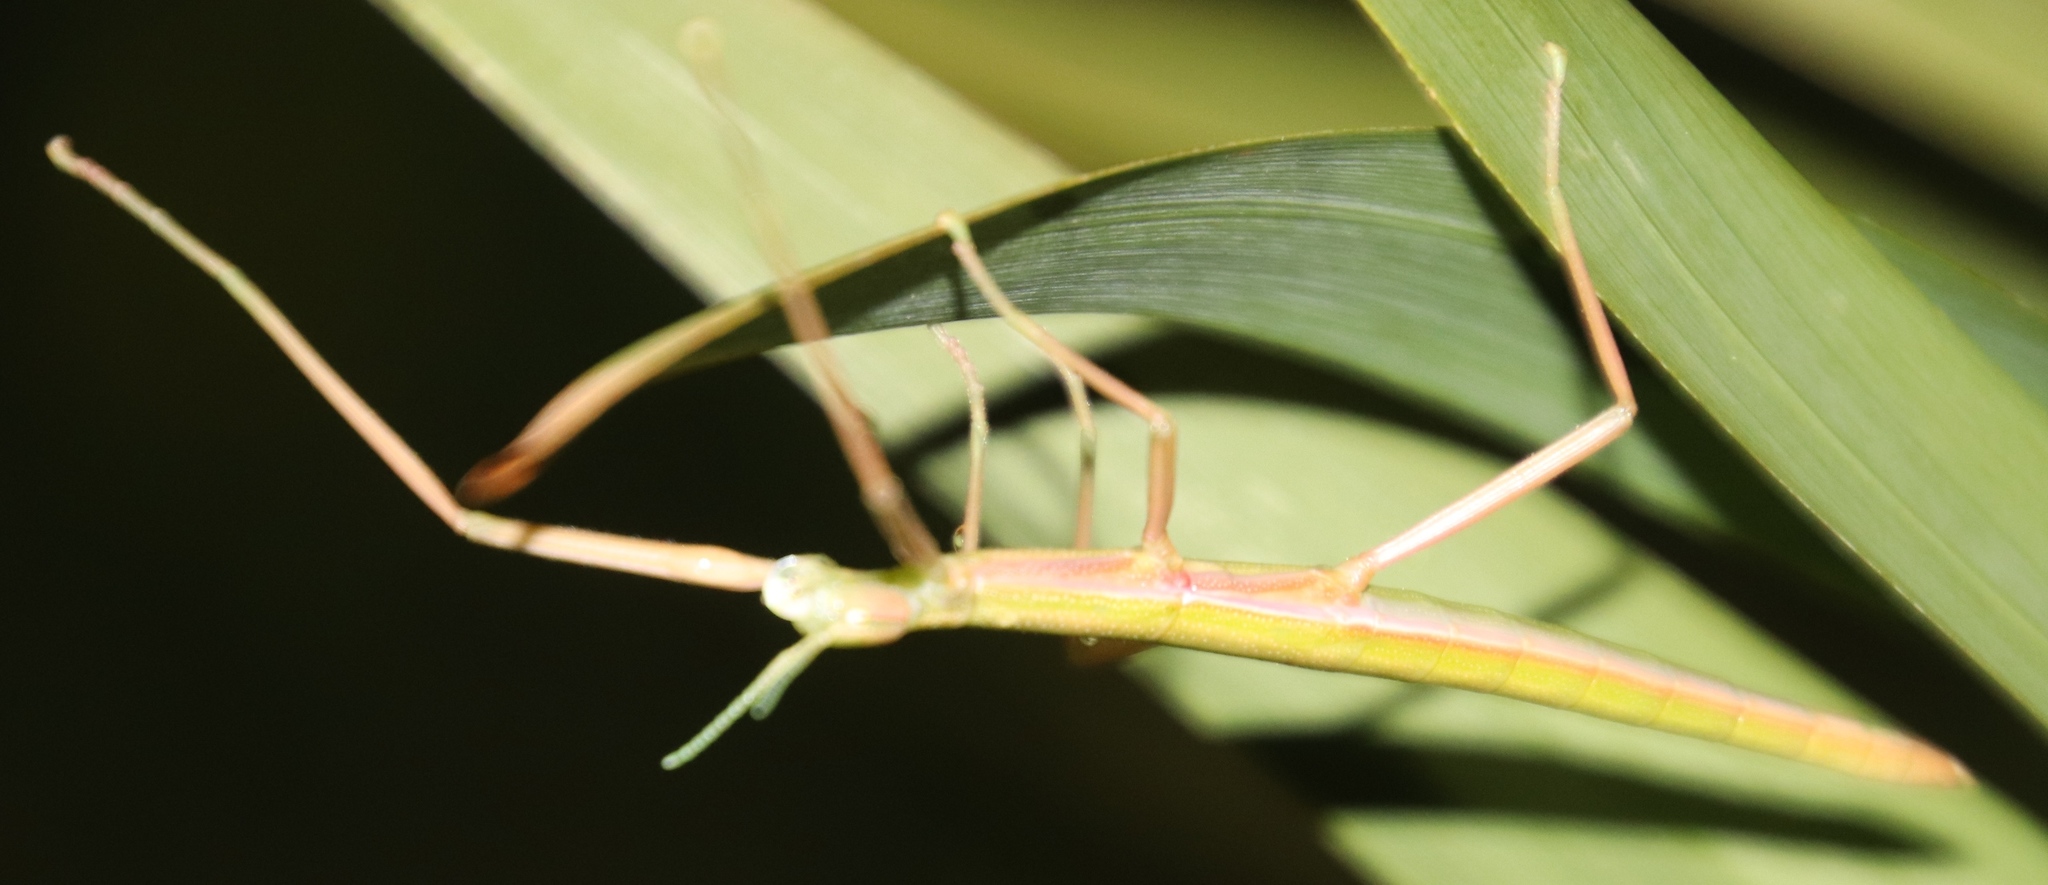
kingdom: Animalia
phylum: Arthropoda
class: Insecta
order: Phasmida
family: Bacillidae
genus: Macynia
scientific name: Macynia labiata
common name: Thunberg's stick insect
